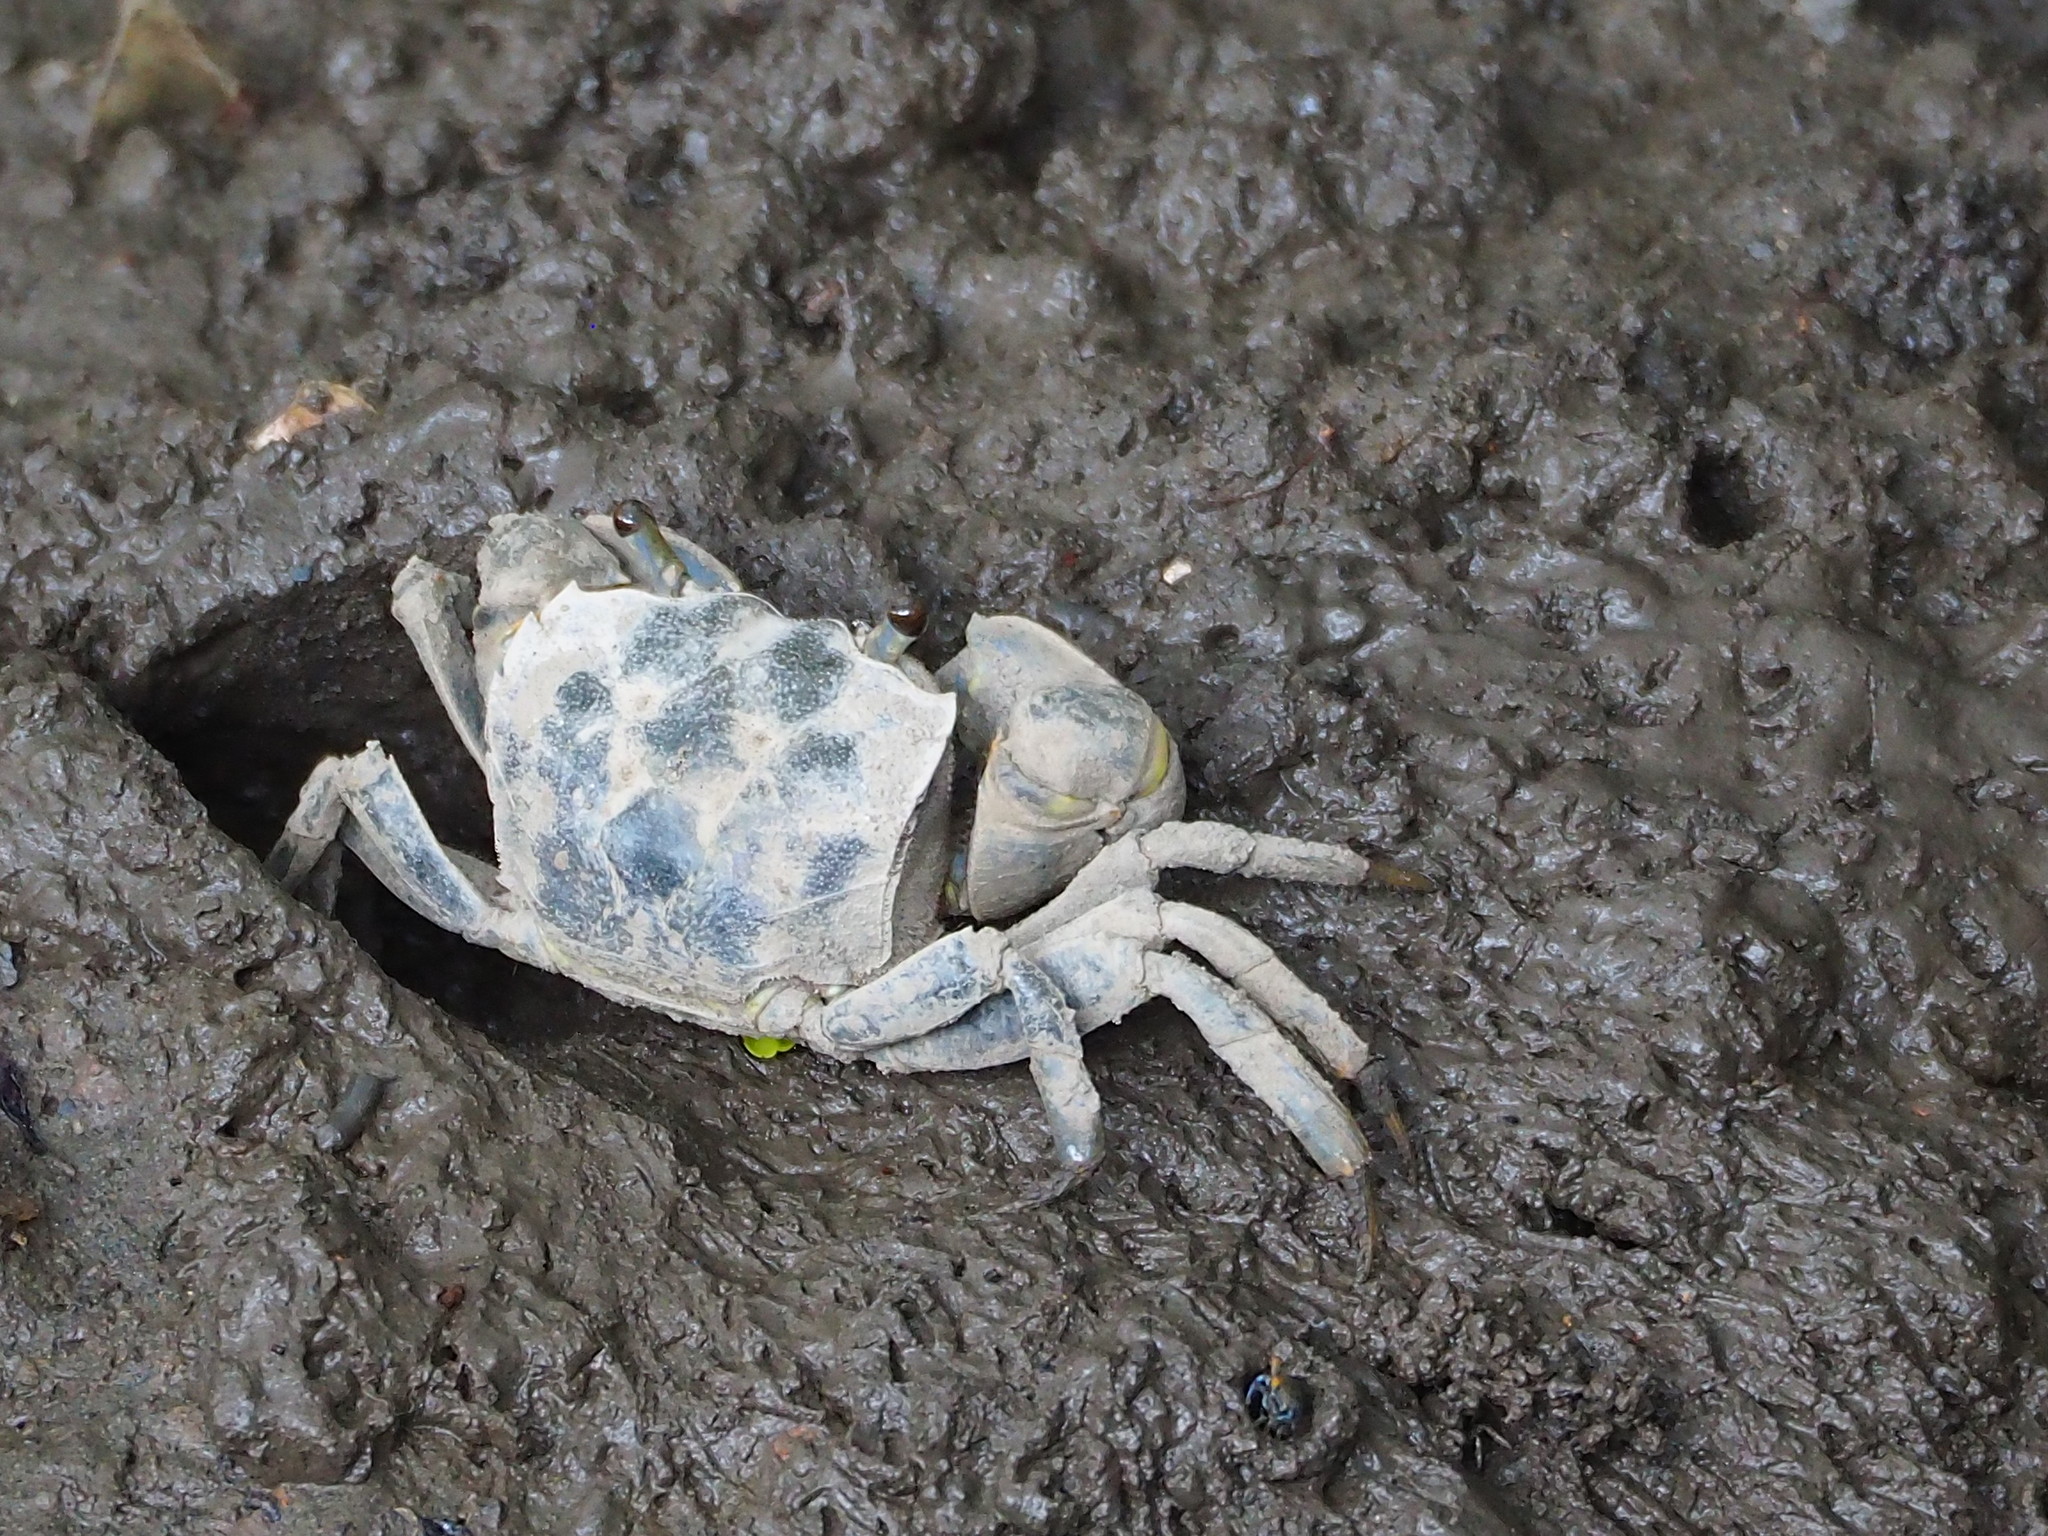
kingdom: Animalia
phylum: Arthropoda
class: Malacostraca
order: Decapoda
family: Varunidae
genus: Helice
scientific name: Helice formosensis
